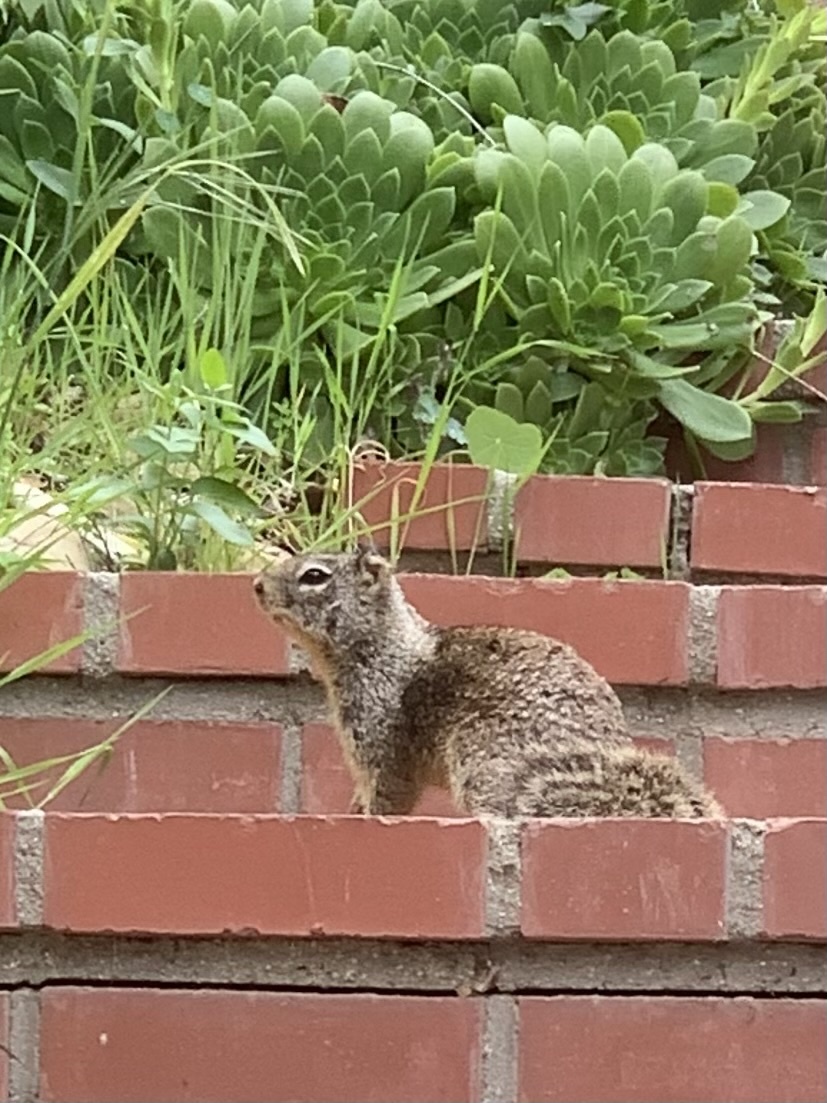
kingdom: Animalia
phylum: Chordata
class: Mammalia
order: Rodentia
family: Sciuridae
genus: Otospermophilus
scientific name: Otospermophilus beecheyi
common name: California ground squirrel
